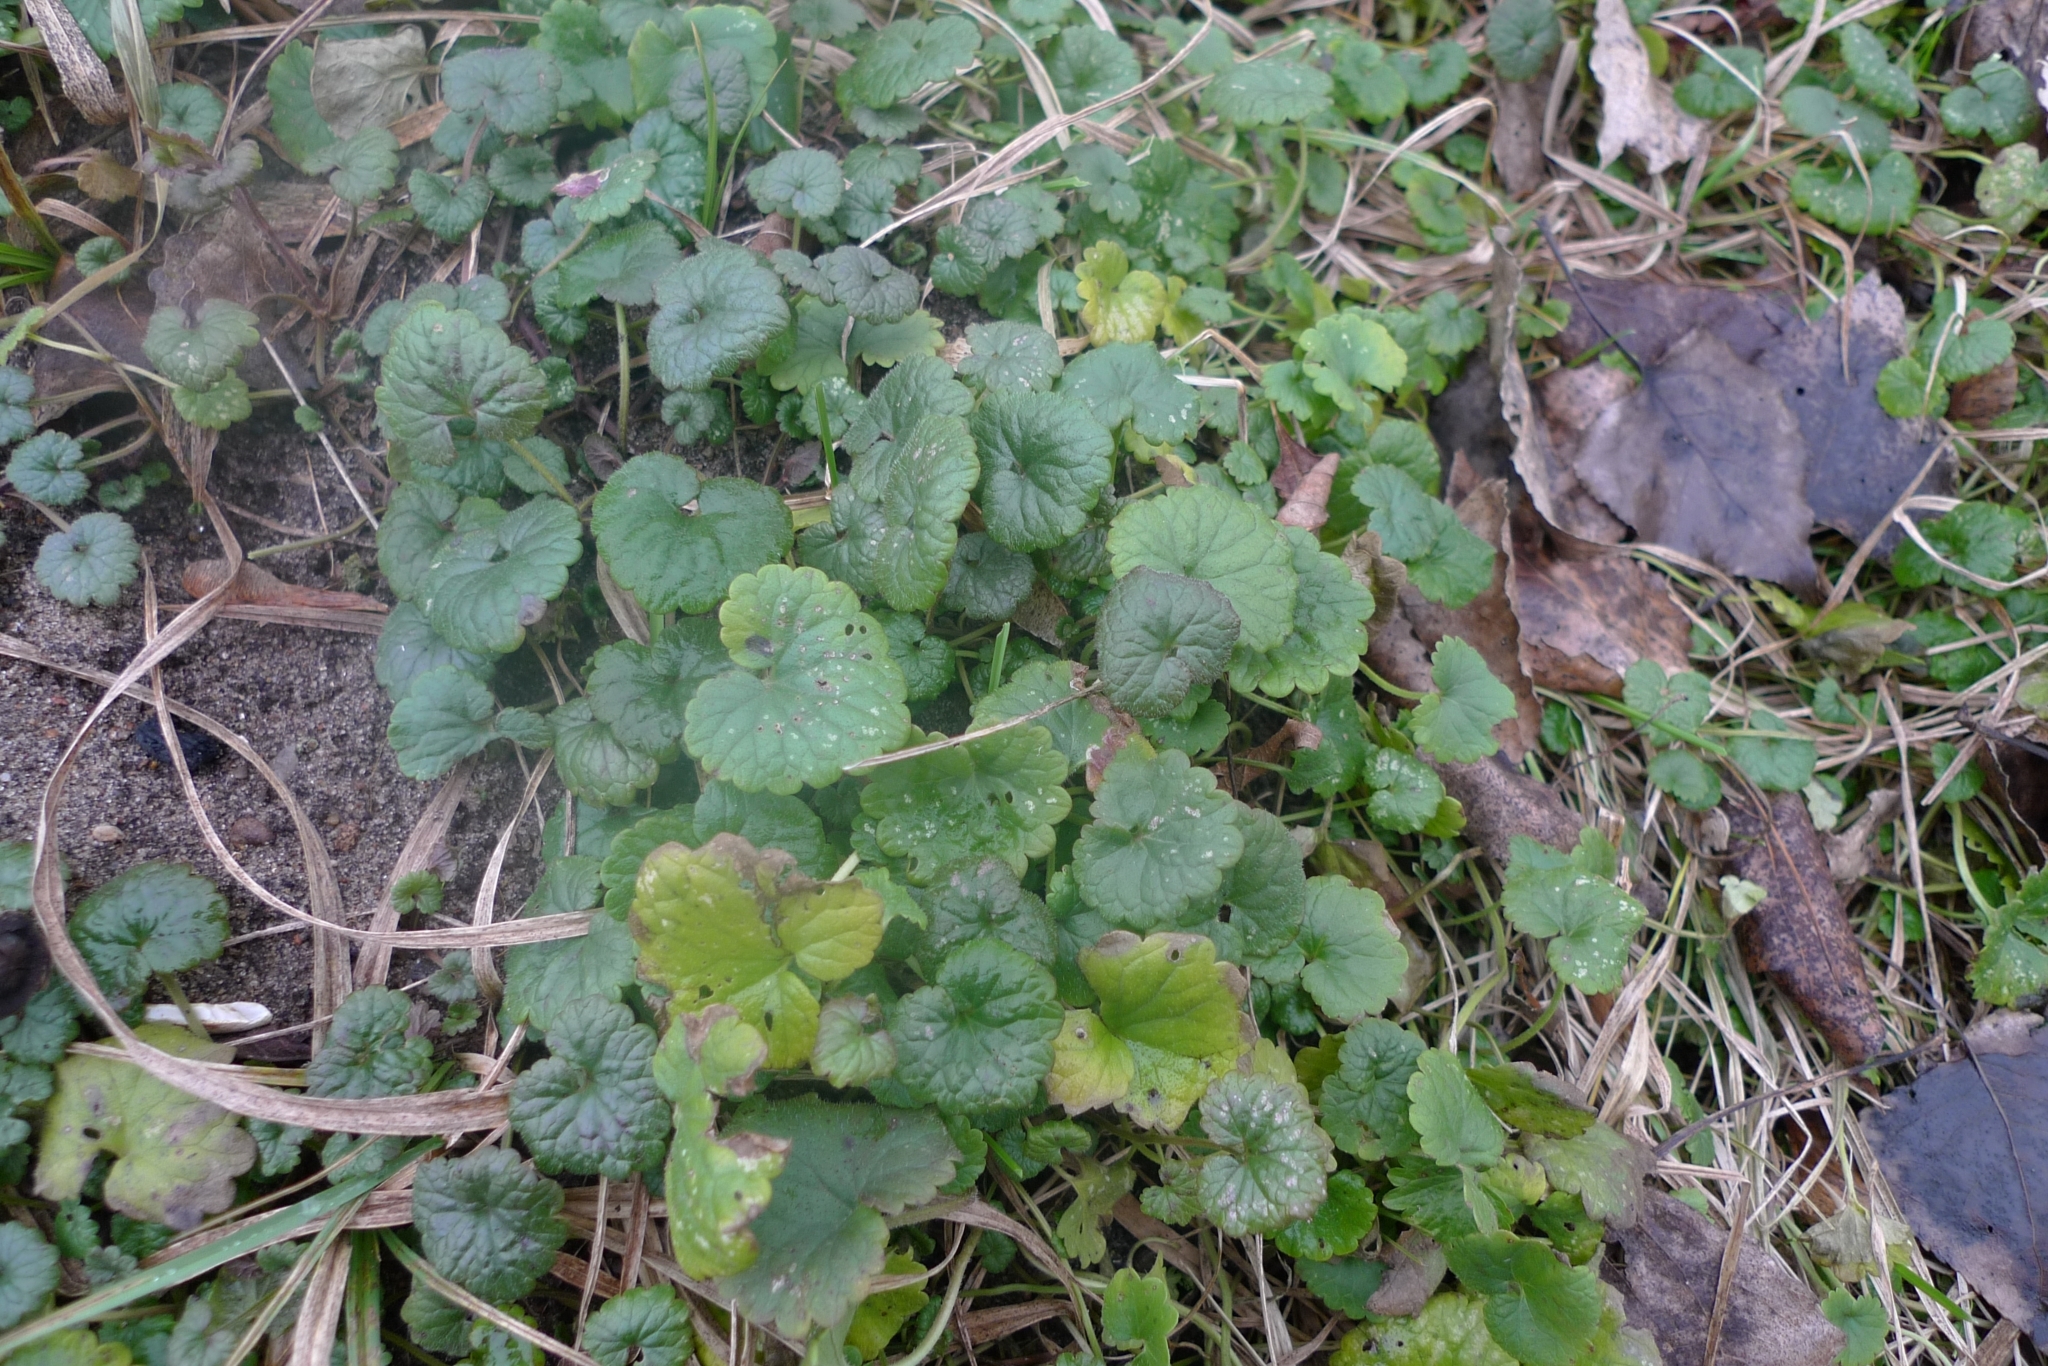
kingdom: Plantae
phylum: Tracheophyta
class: Magnoliopsida
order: Lamiales
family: Lamiaceae
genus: Glechoma
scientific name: Glechoma hederacea
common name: Ground ivy
